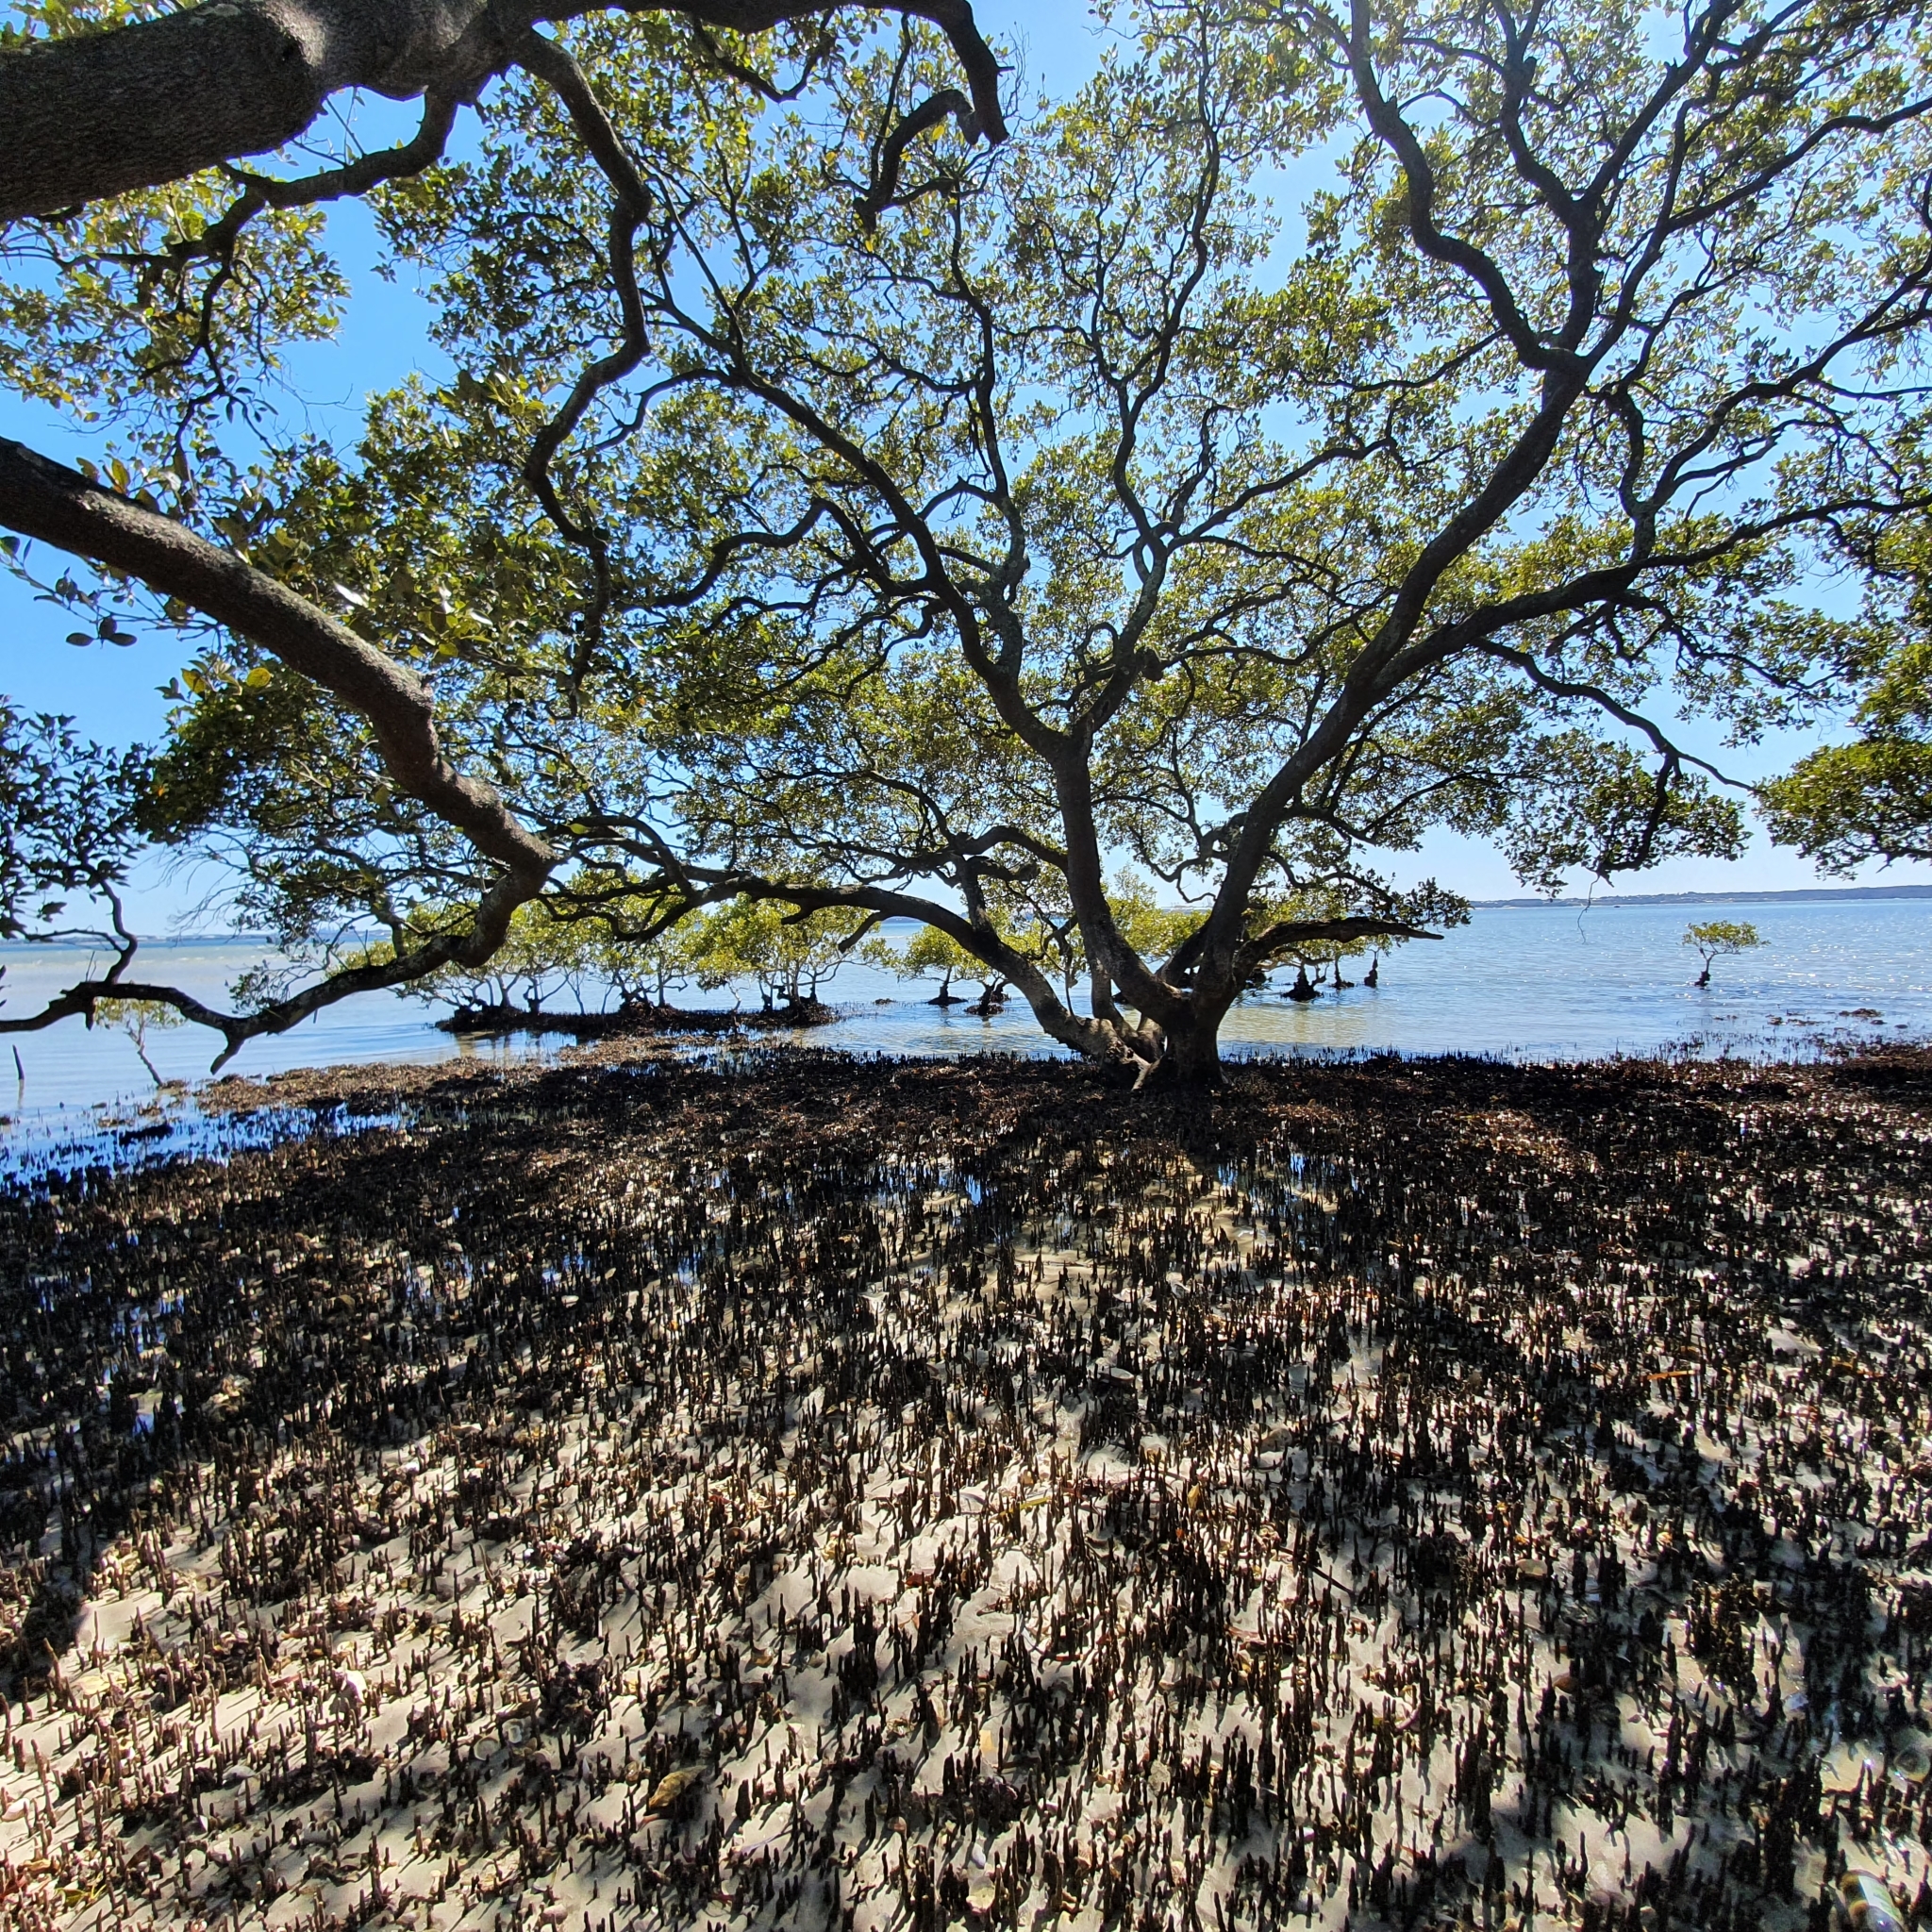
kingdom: Plantae
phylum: Tracheophyta
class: Magnoliopsida
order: Lamiales
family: Acanthaceae
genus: Avicennia
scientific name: Avicennia marina
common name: Gray mangrove
